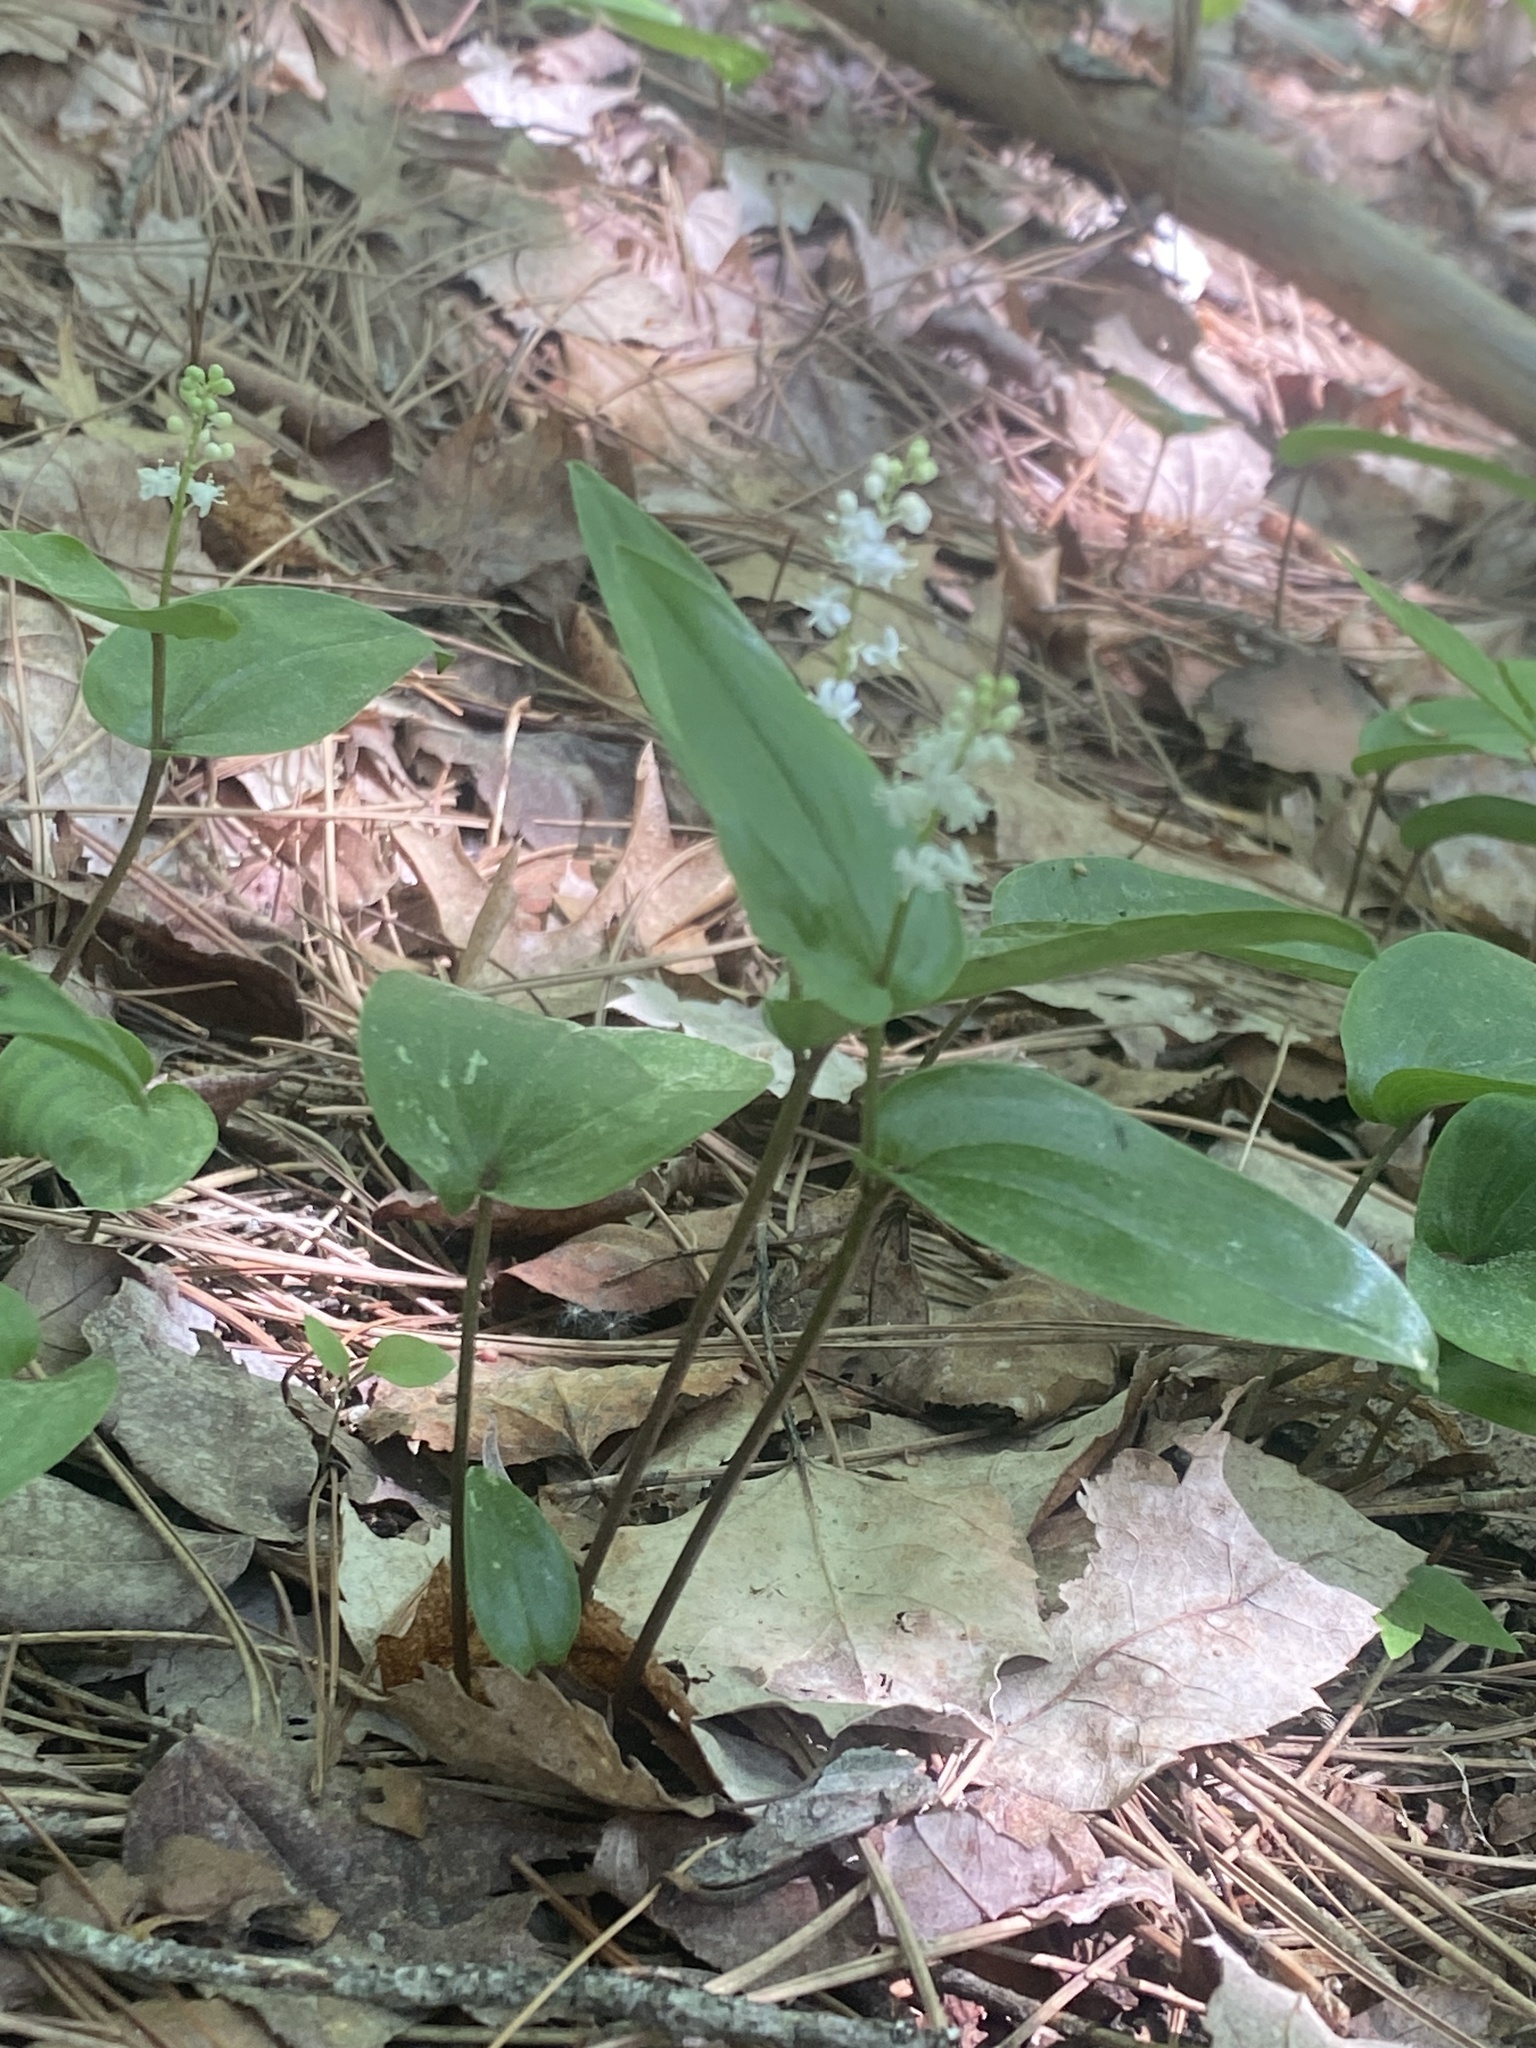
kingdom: Plantae
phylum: Tracheophyta
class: Liliopsida
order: Asparagales
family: Asparagaceae
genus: Maianthemum
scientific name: Maianthemum canadense
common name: False lily-of-the-valley
